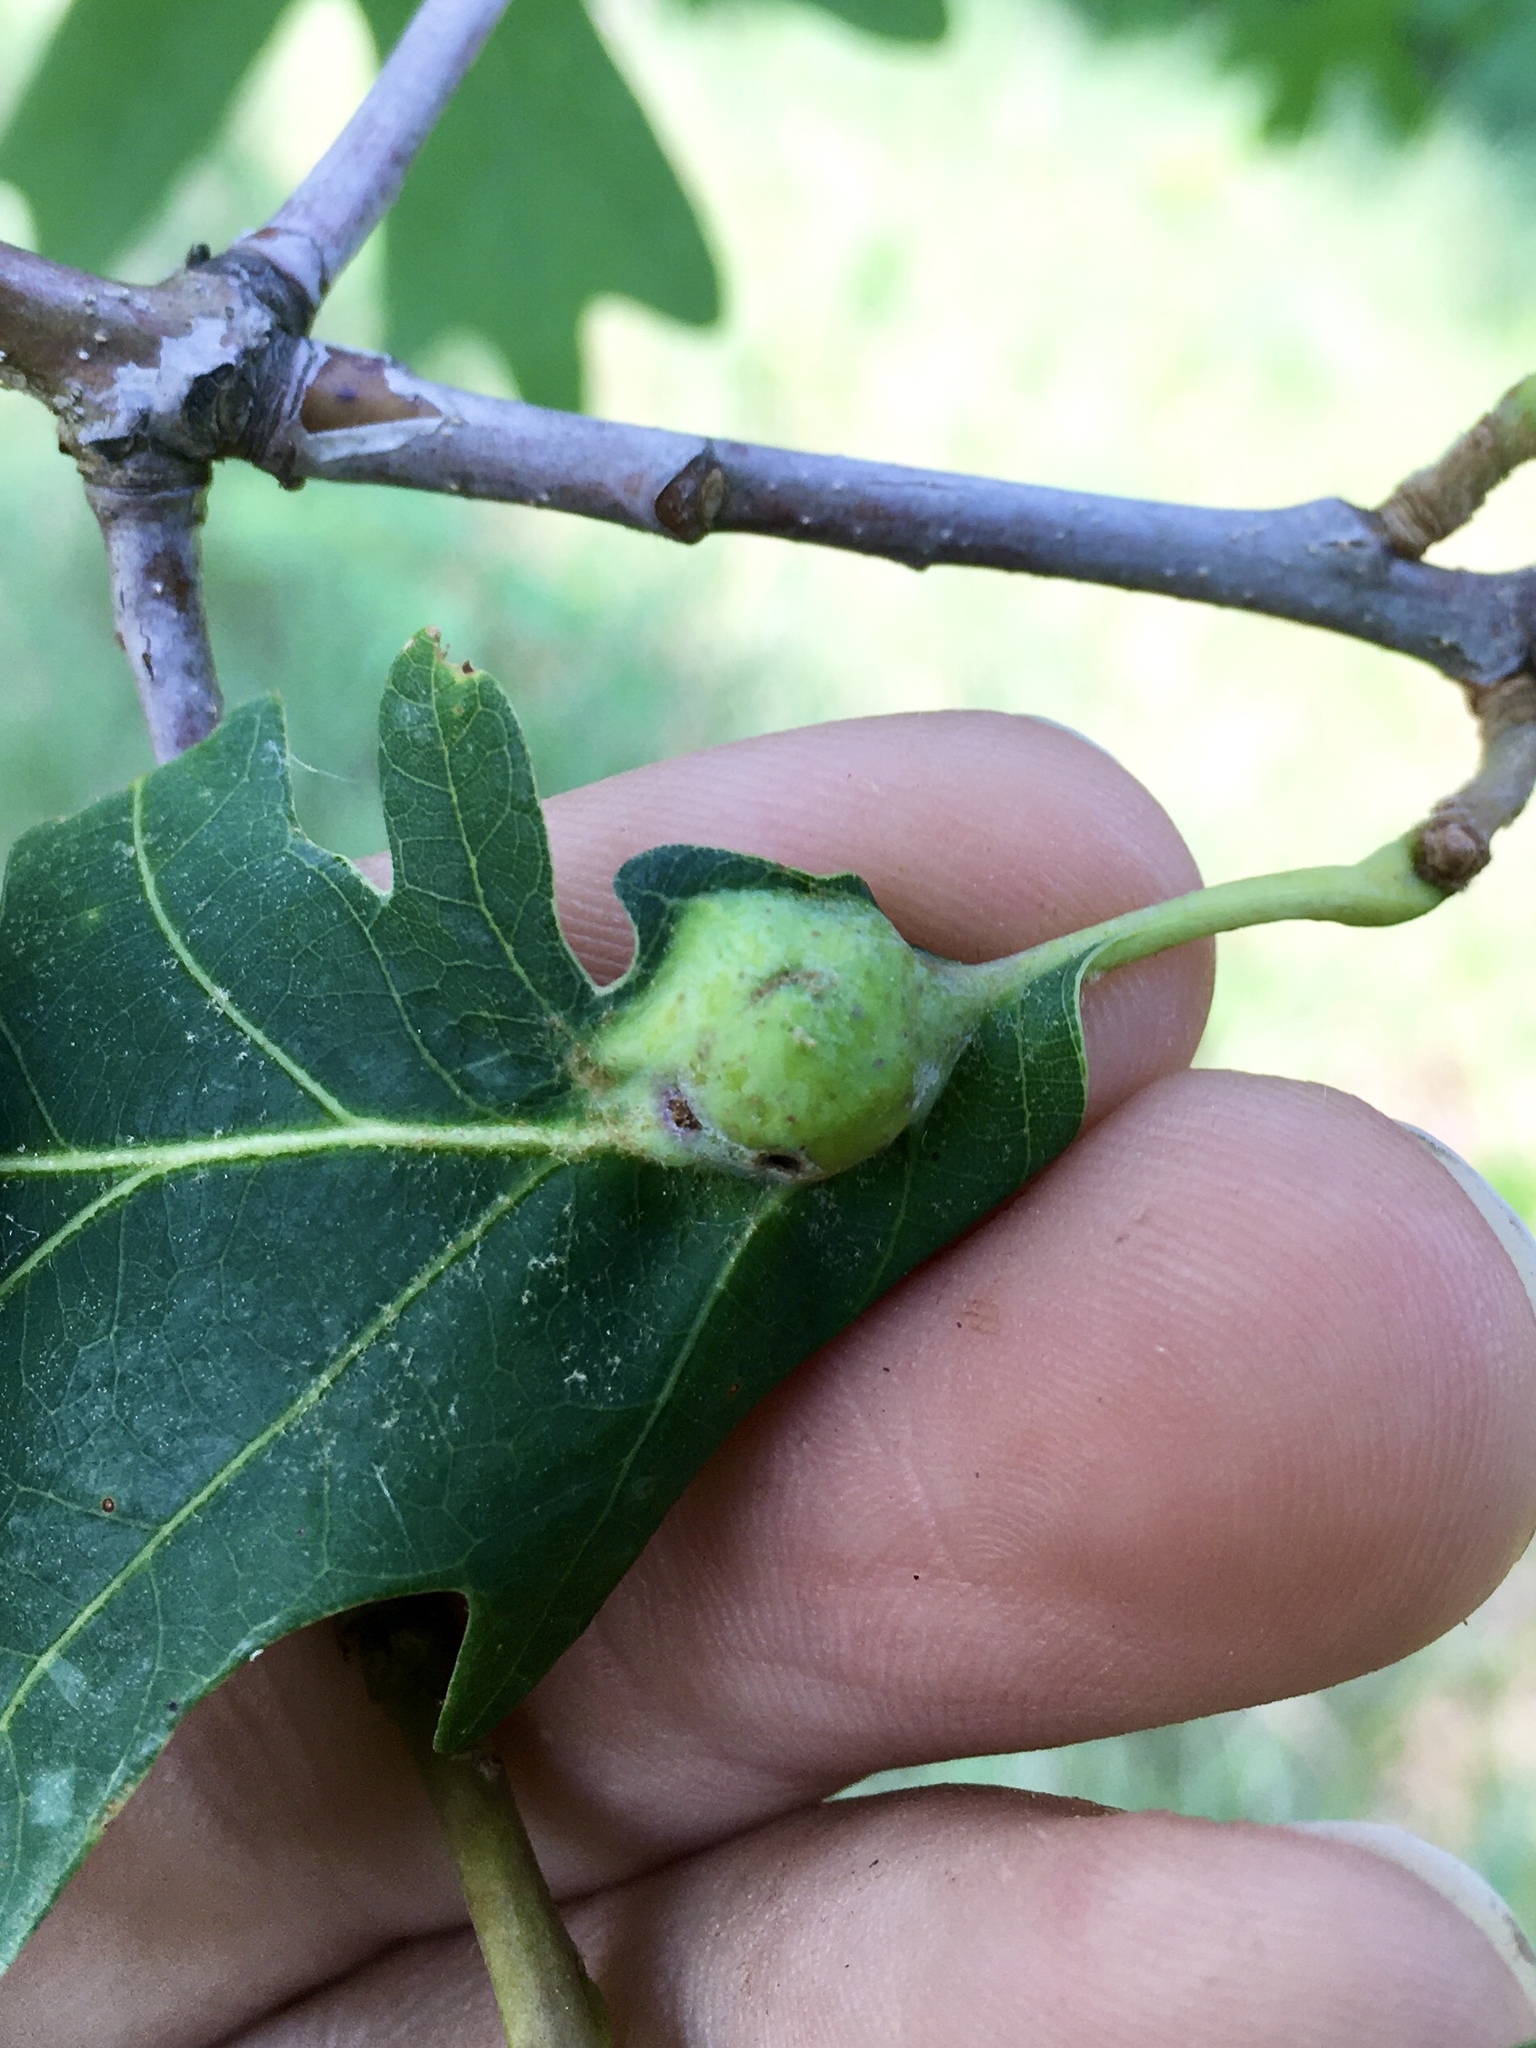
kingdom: Animalia
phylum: Arthropoda
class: Insecta
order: Hymenoptera
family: Cynipidae
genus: Andricus
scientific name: Andricus
